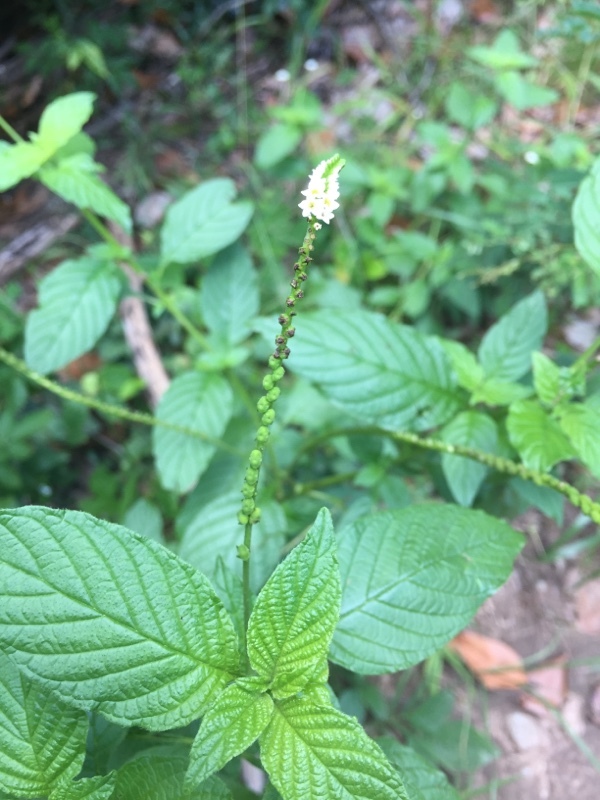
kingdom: Plantae
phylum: Tracheophyta
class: Magnoliopsida
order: Boraginales
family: Heliotropiaceae
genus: Heliotropium
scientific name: Heliotropium angiospermum
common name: Eye bright
